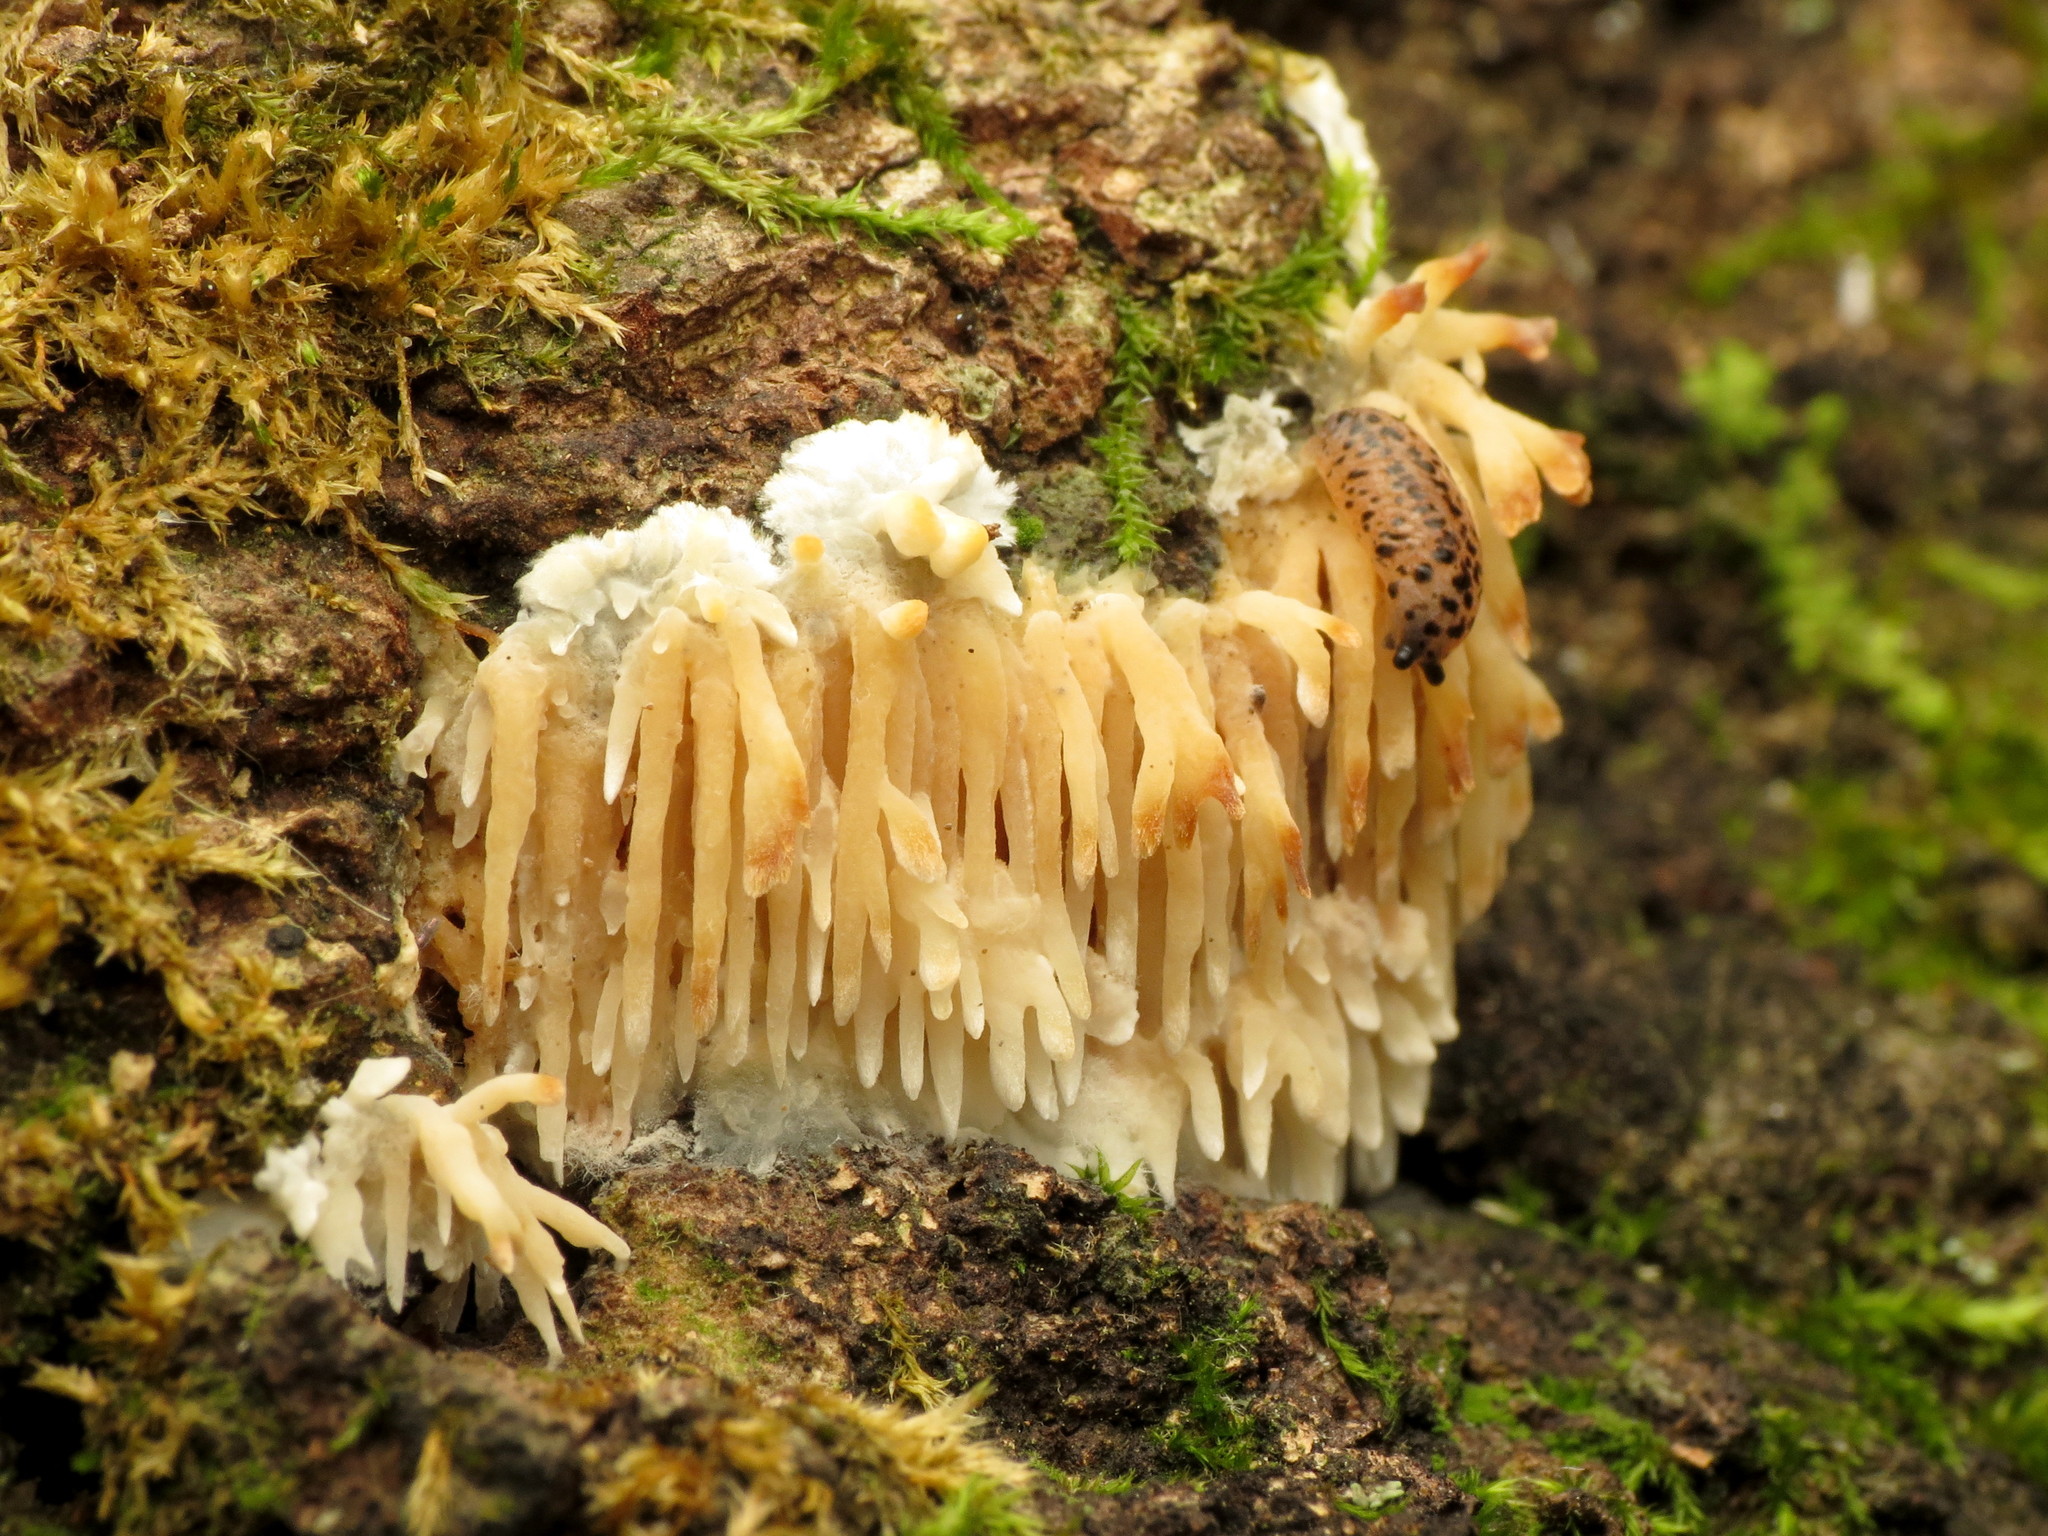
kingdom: Fungi
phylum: Basidiomycota
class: Agaricomycetes
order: Agaricales
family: Radulomycetaceae
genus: Radulomyces
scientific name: Radulomyces copelandii
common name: Asian beauty
